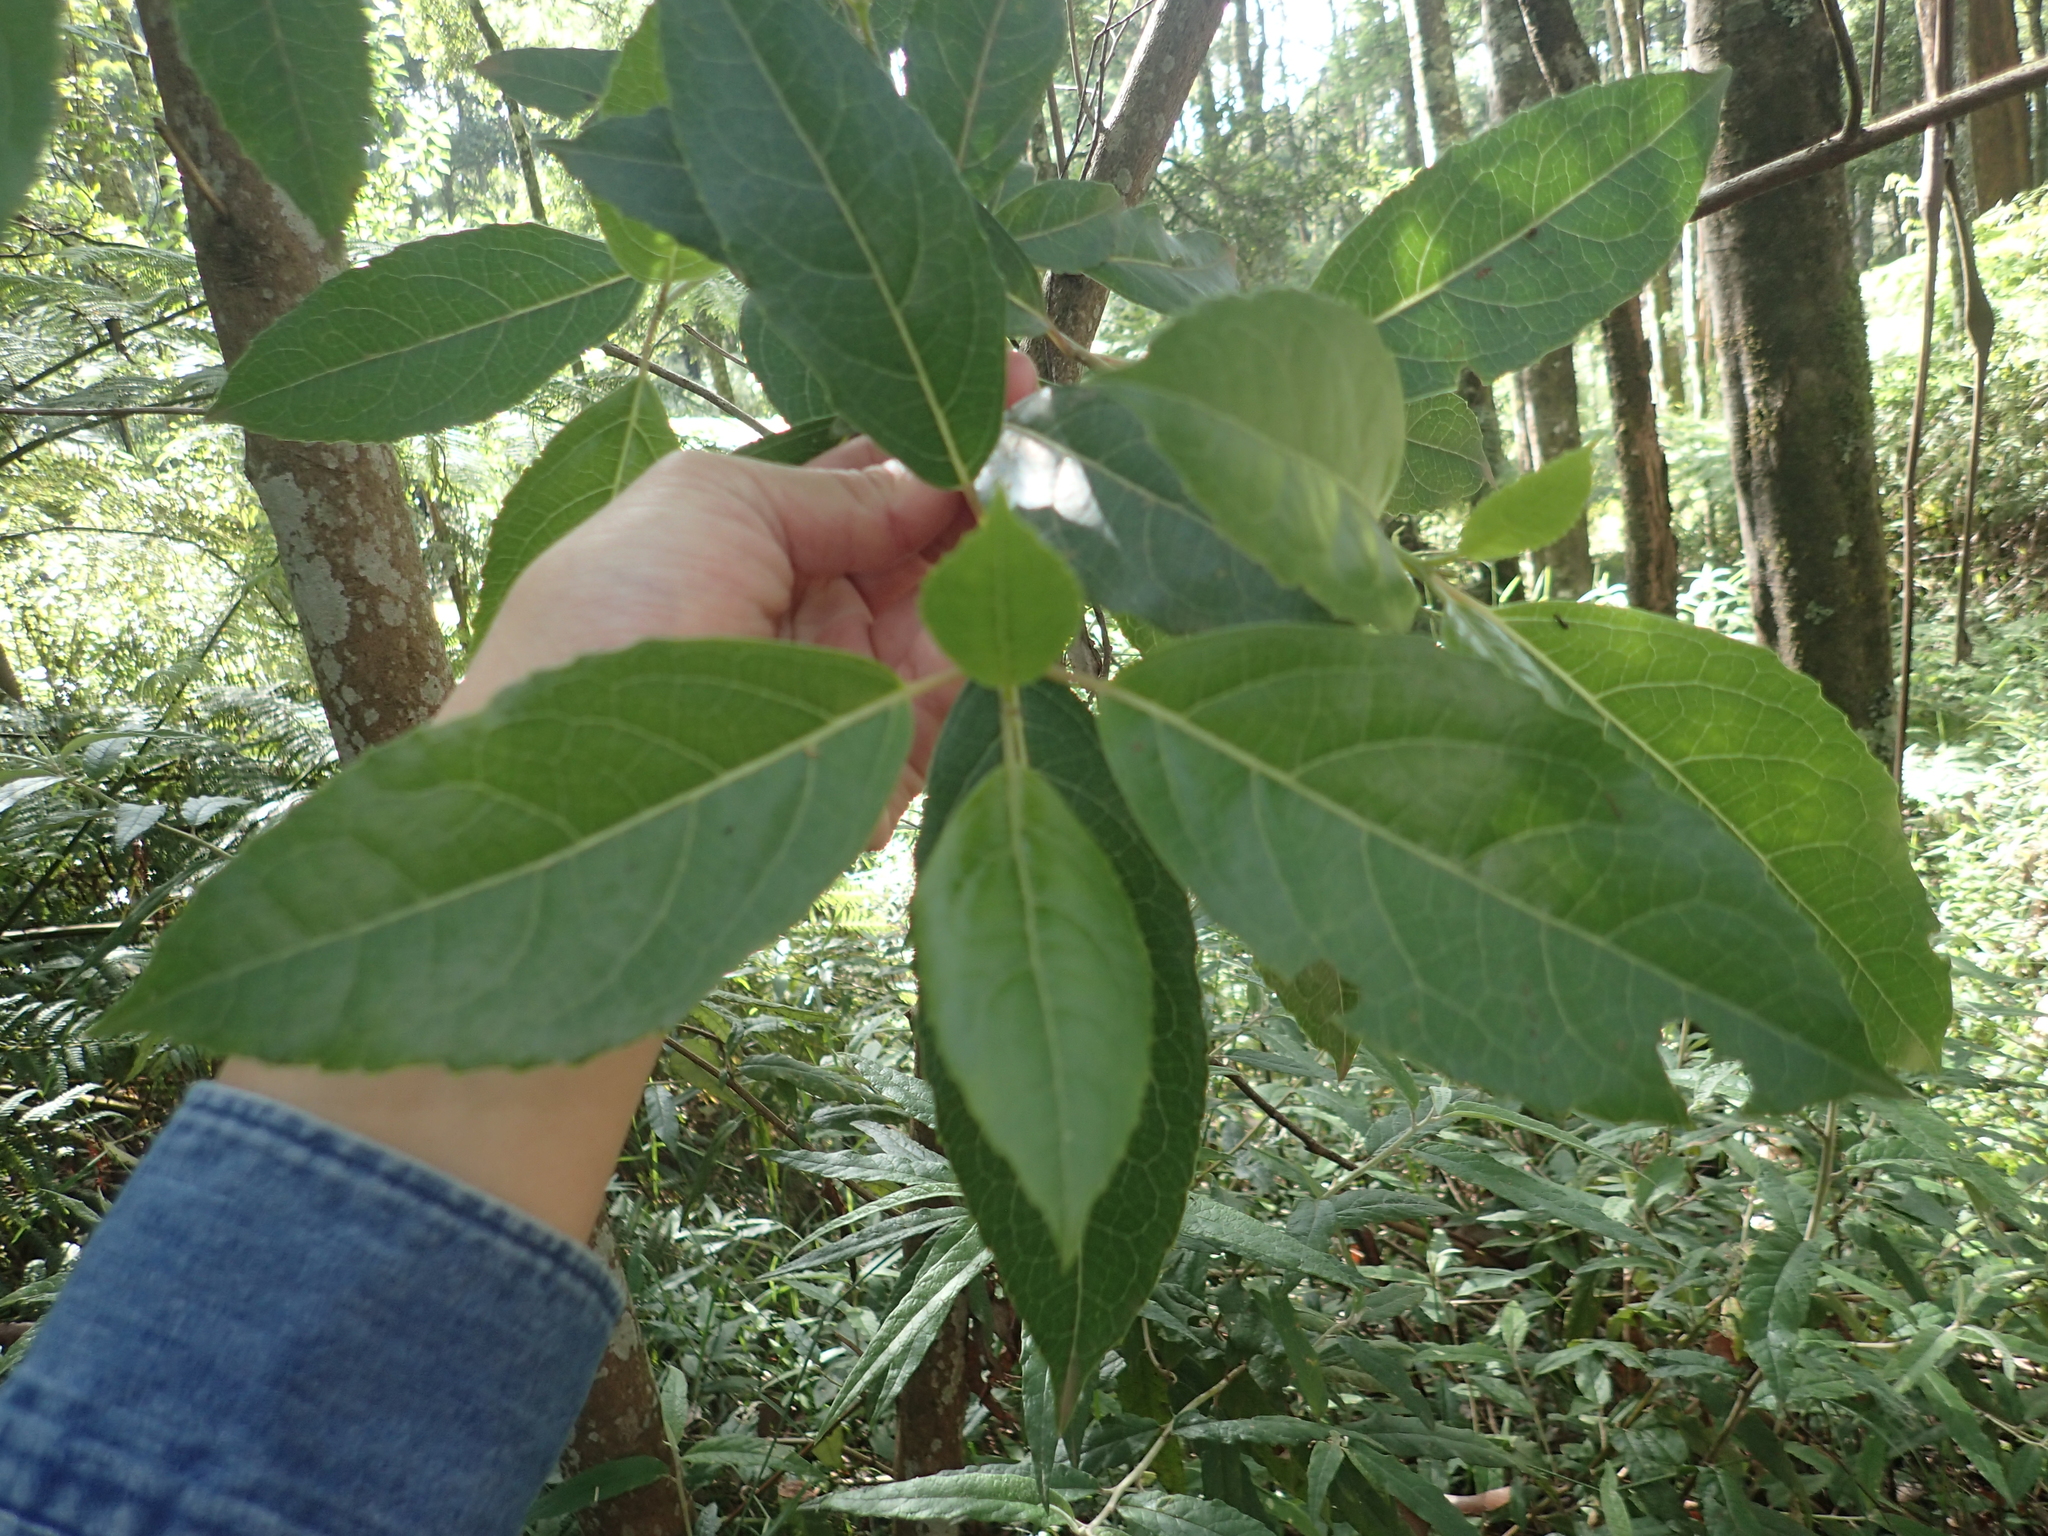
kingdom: Plantae
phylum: Tracheophyta
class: Magnoliopsida
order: Laurales
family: Monimiaceae
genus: Hedycarya
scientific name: Hedycarya angustifolia
